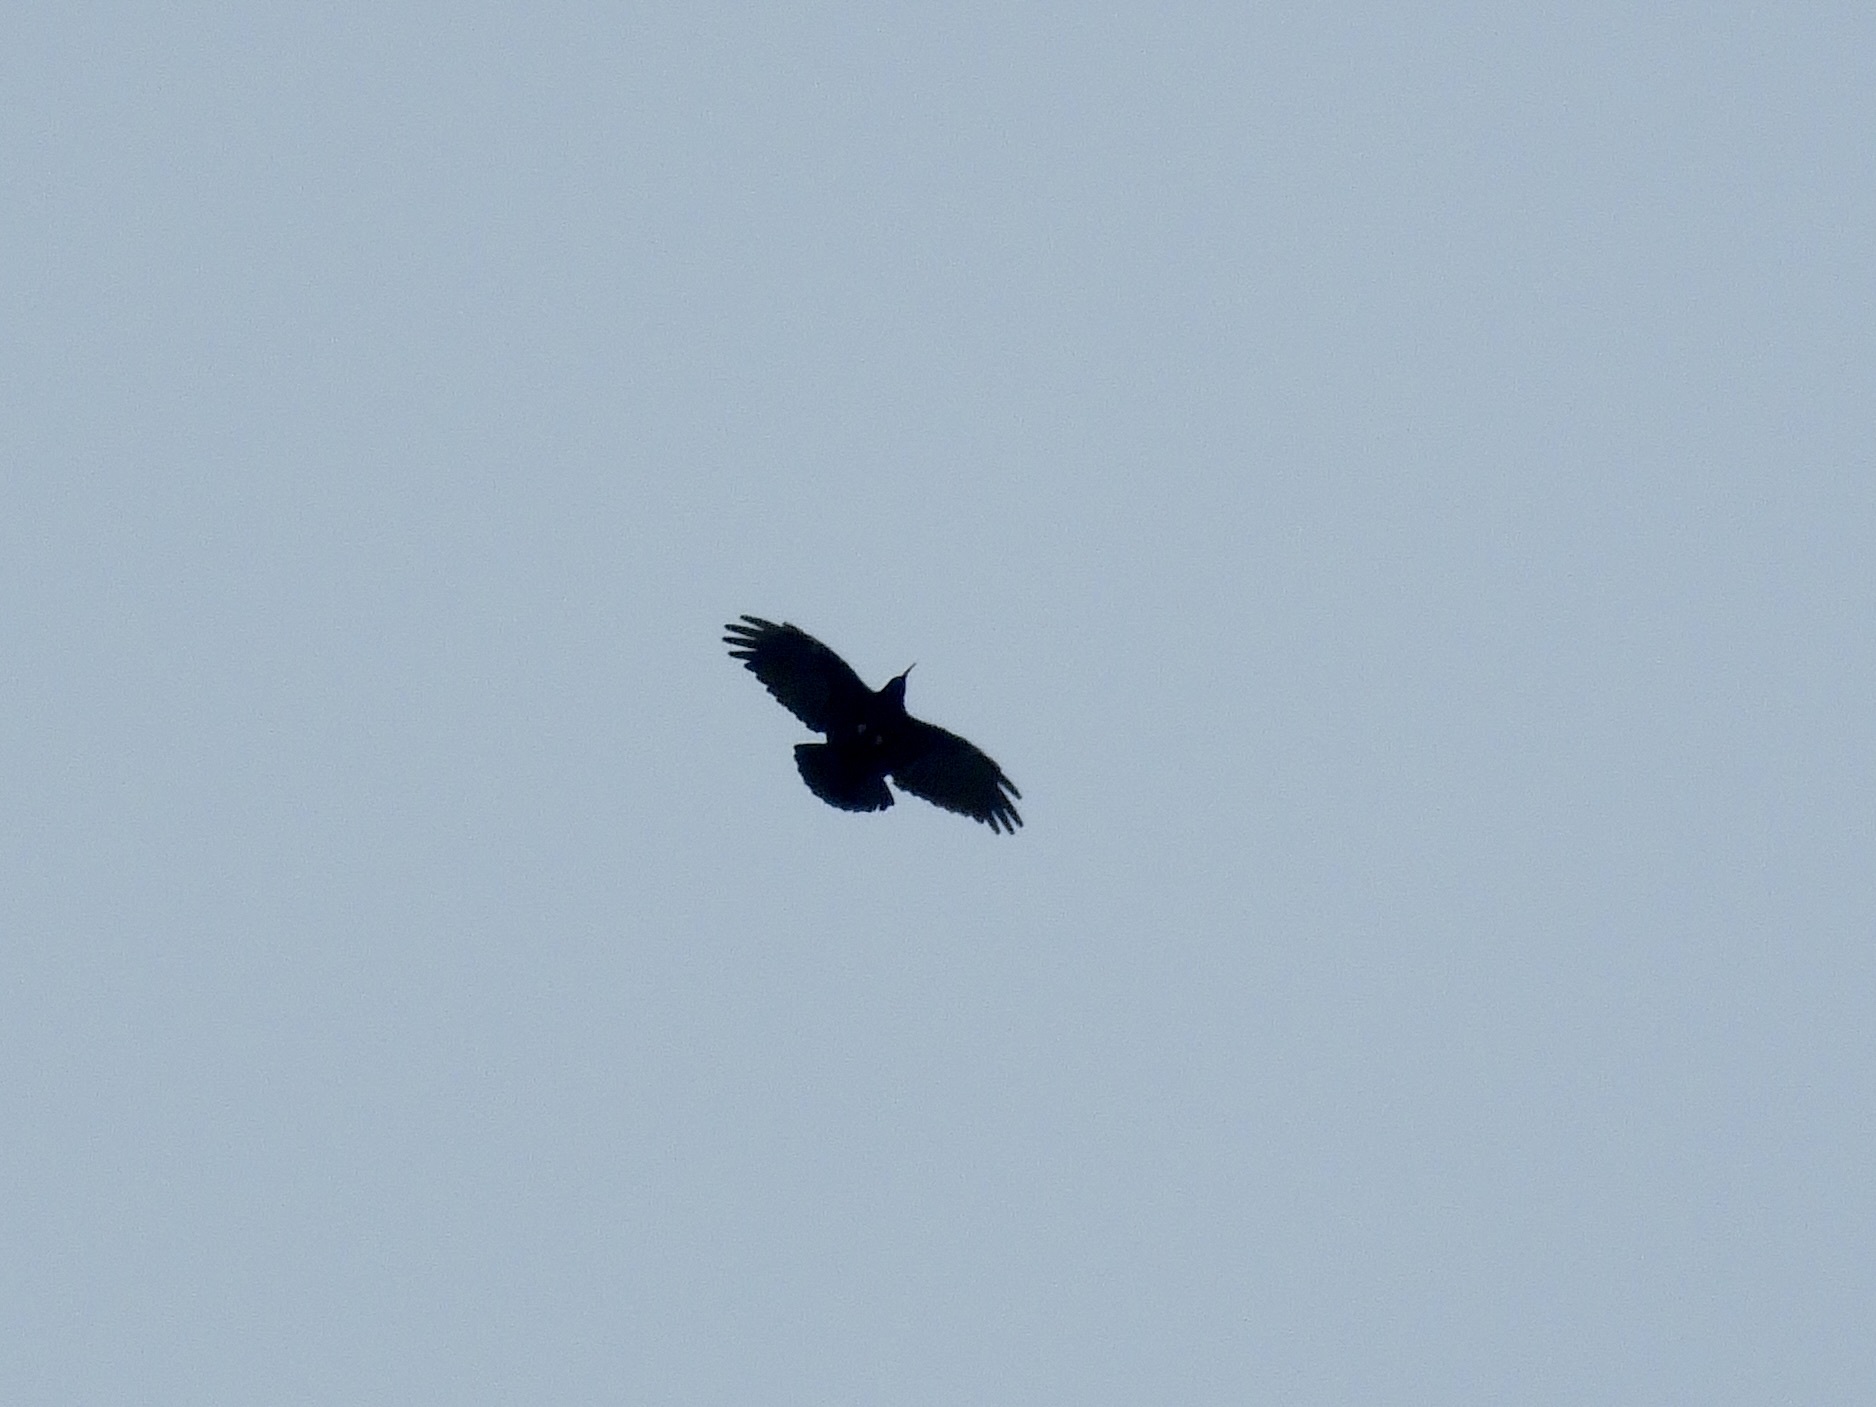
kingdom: Animalia
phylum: Chordata
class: Aves
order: Passeriformes
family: Corvidae
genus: Pyrrhocorax
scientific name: Pyrrhocorax pyrrhocorax
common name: Red-billed chough
